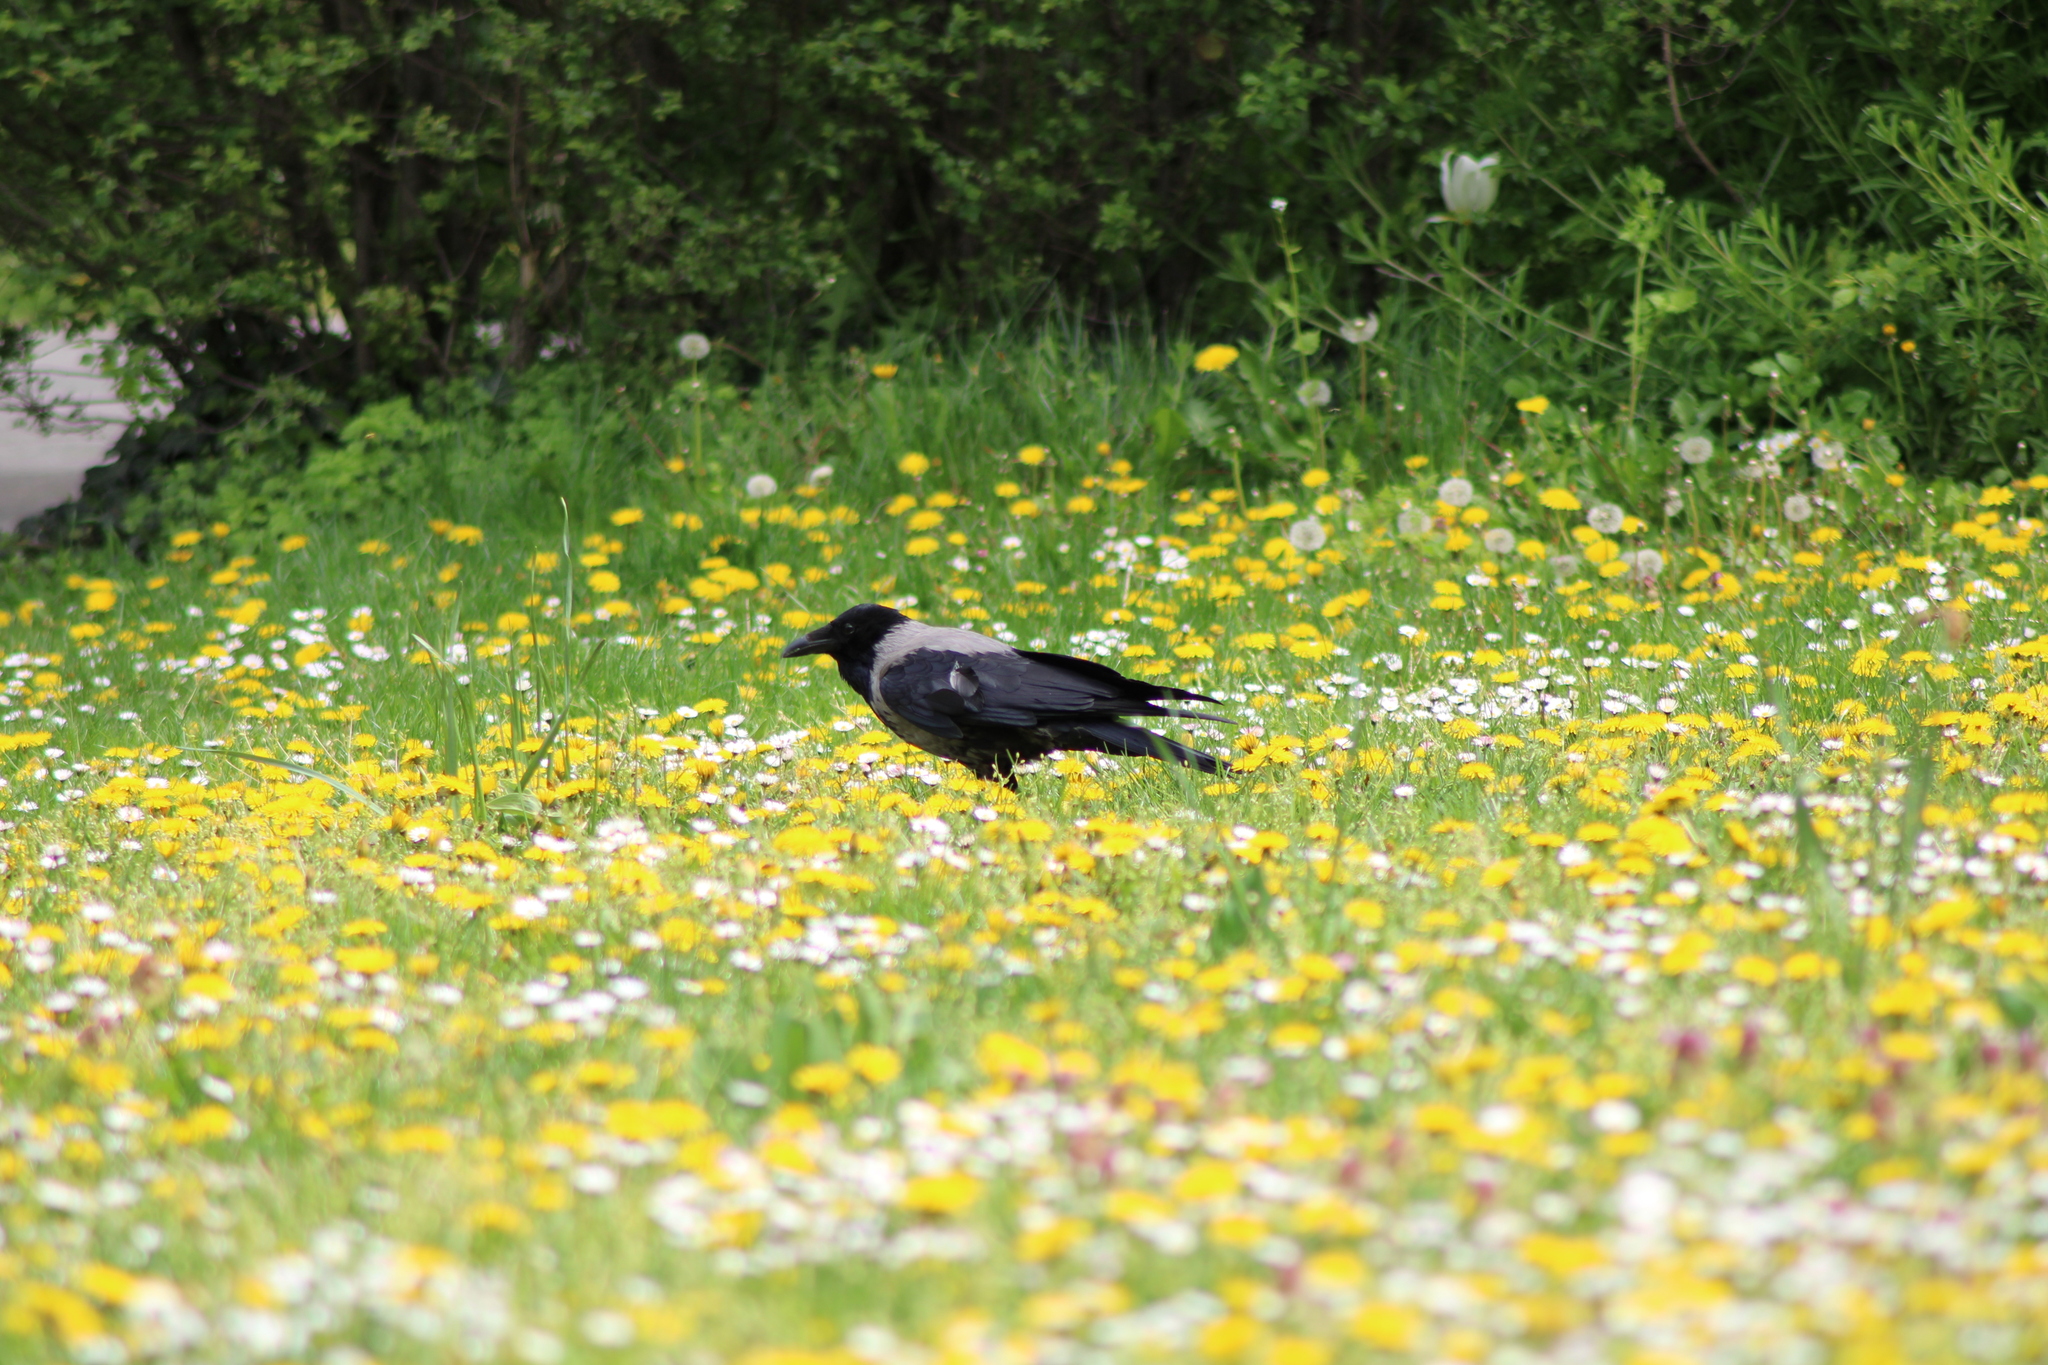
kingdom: Animalia
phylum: Chordata
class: Aves
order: Passeriformes
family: Corvidae
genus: Corvus
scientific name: Corvus
